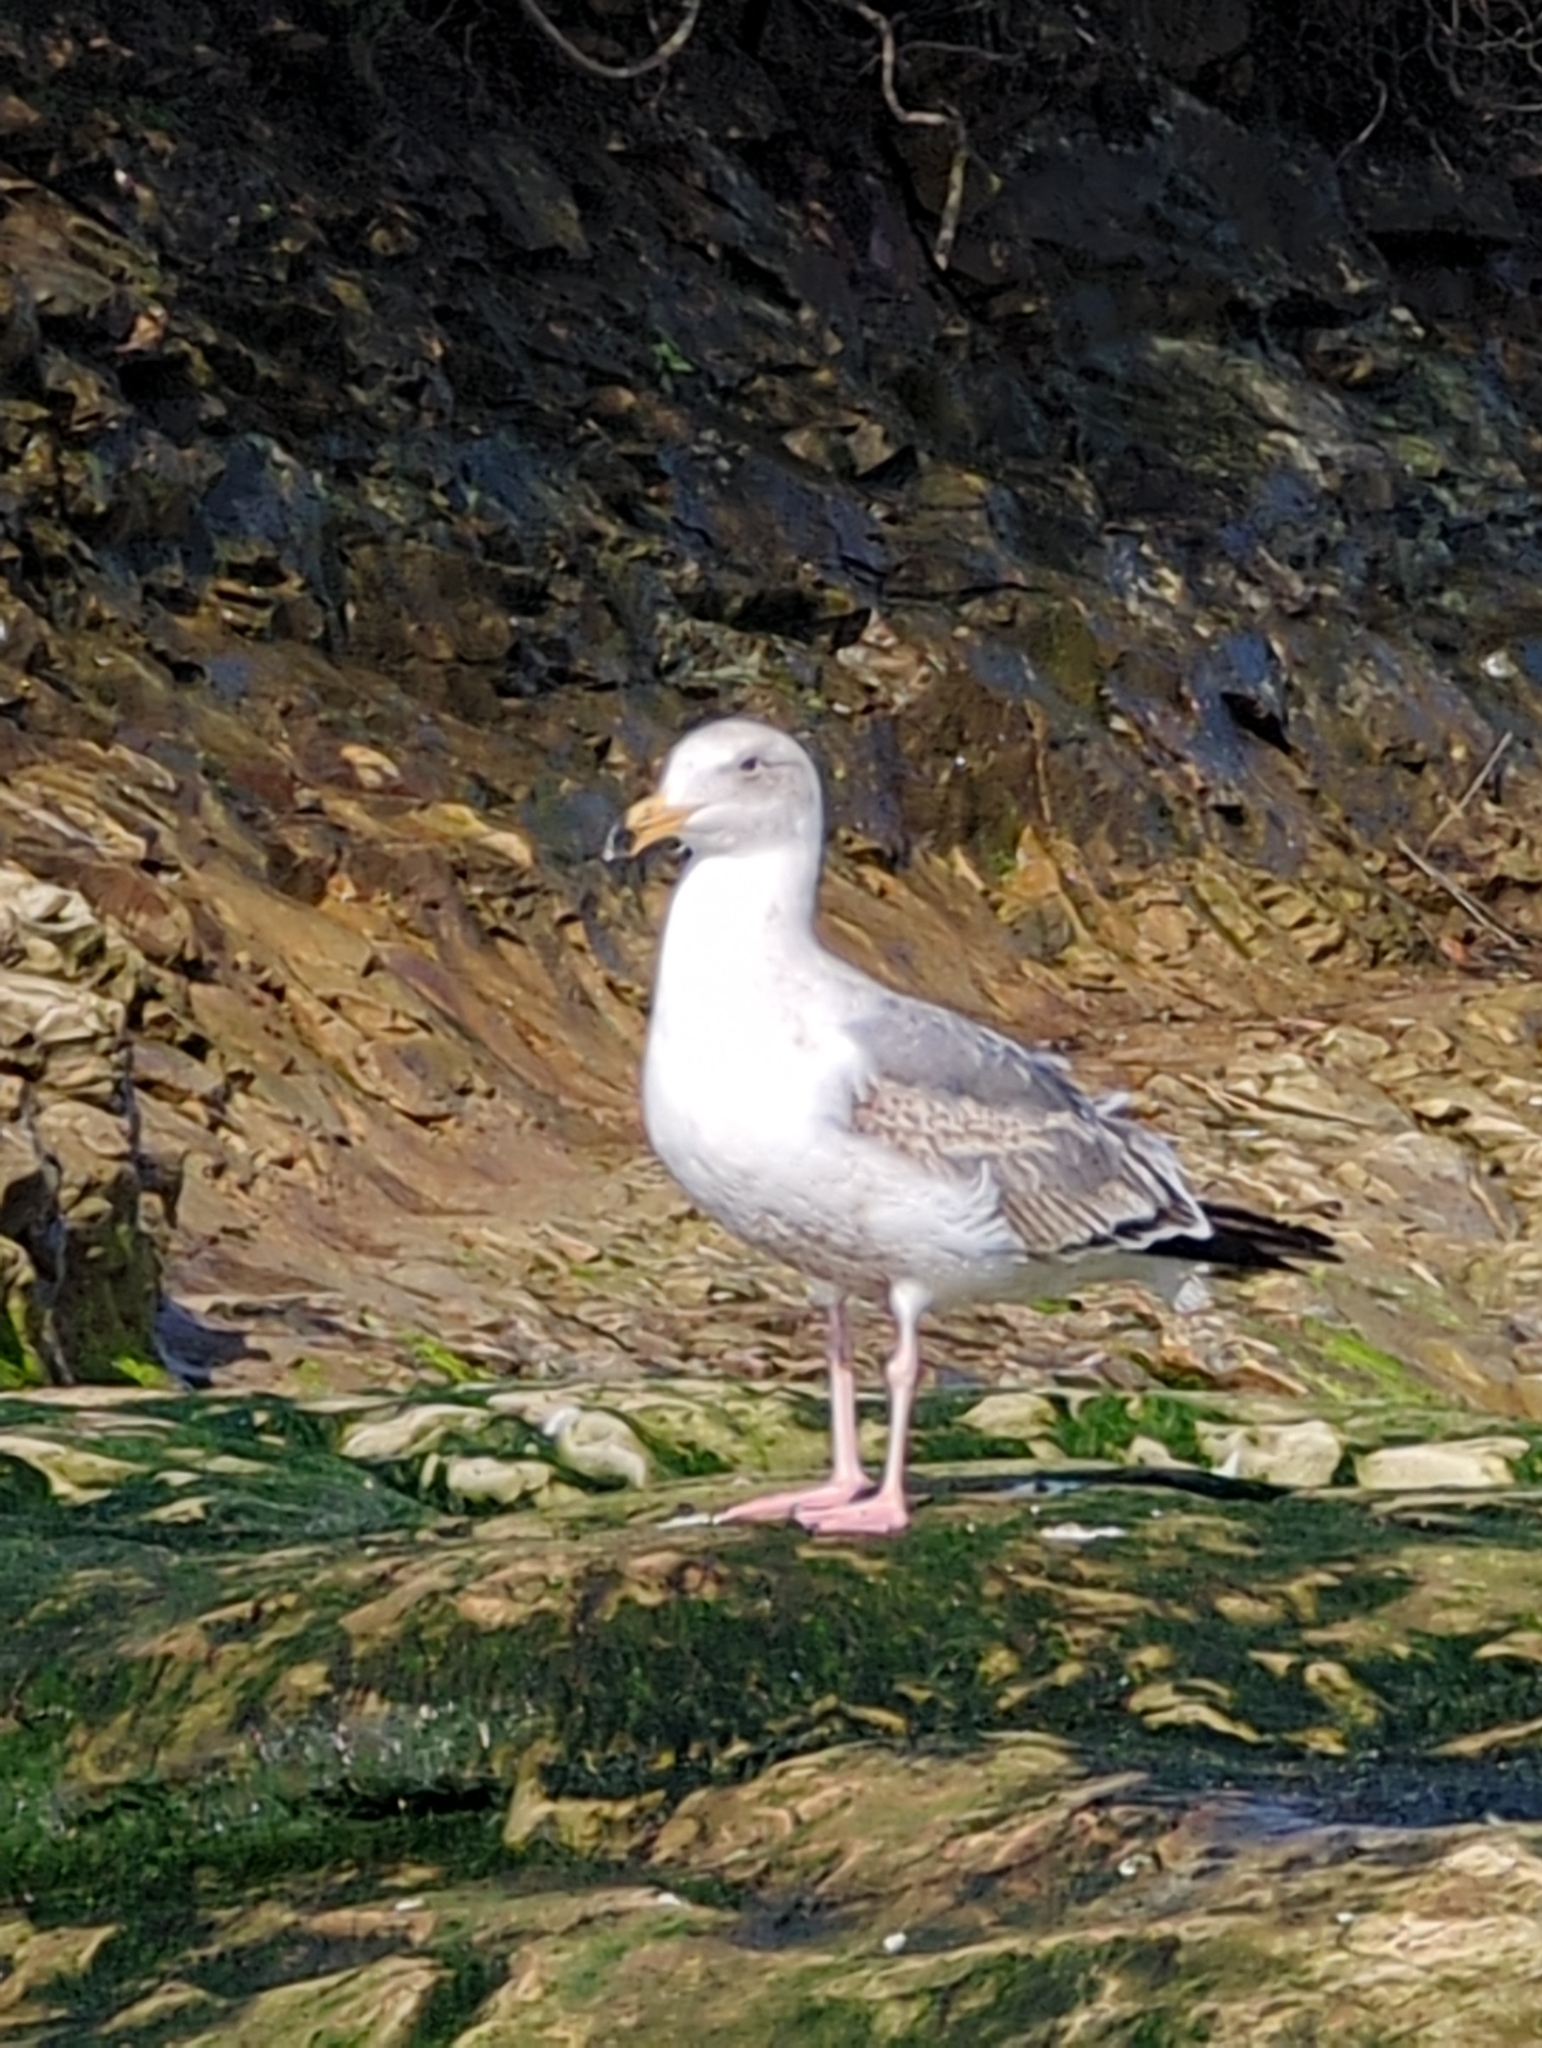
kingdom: Animalia
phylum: Chordata
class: Aves
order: Charadriiformes
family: Laridae
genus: Larus
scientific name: Larus occidentalis
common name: Western gull
